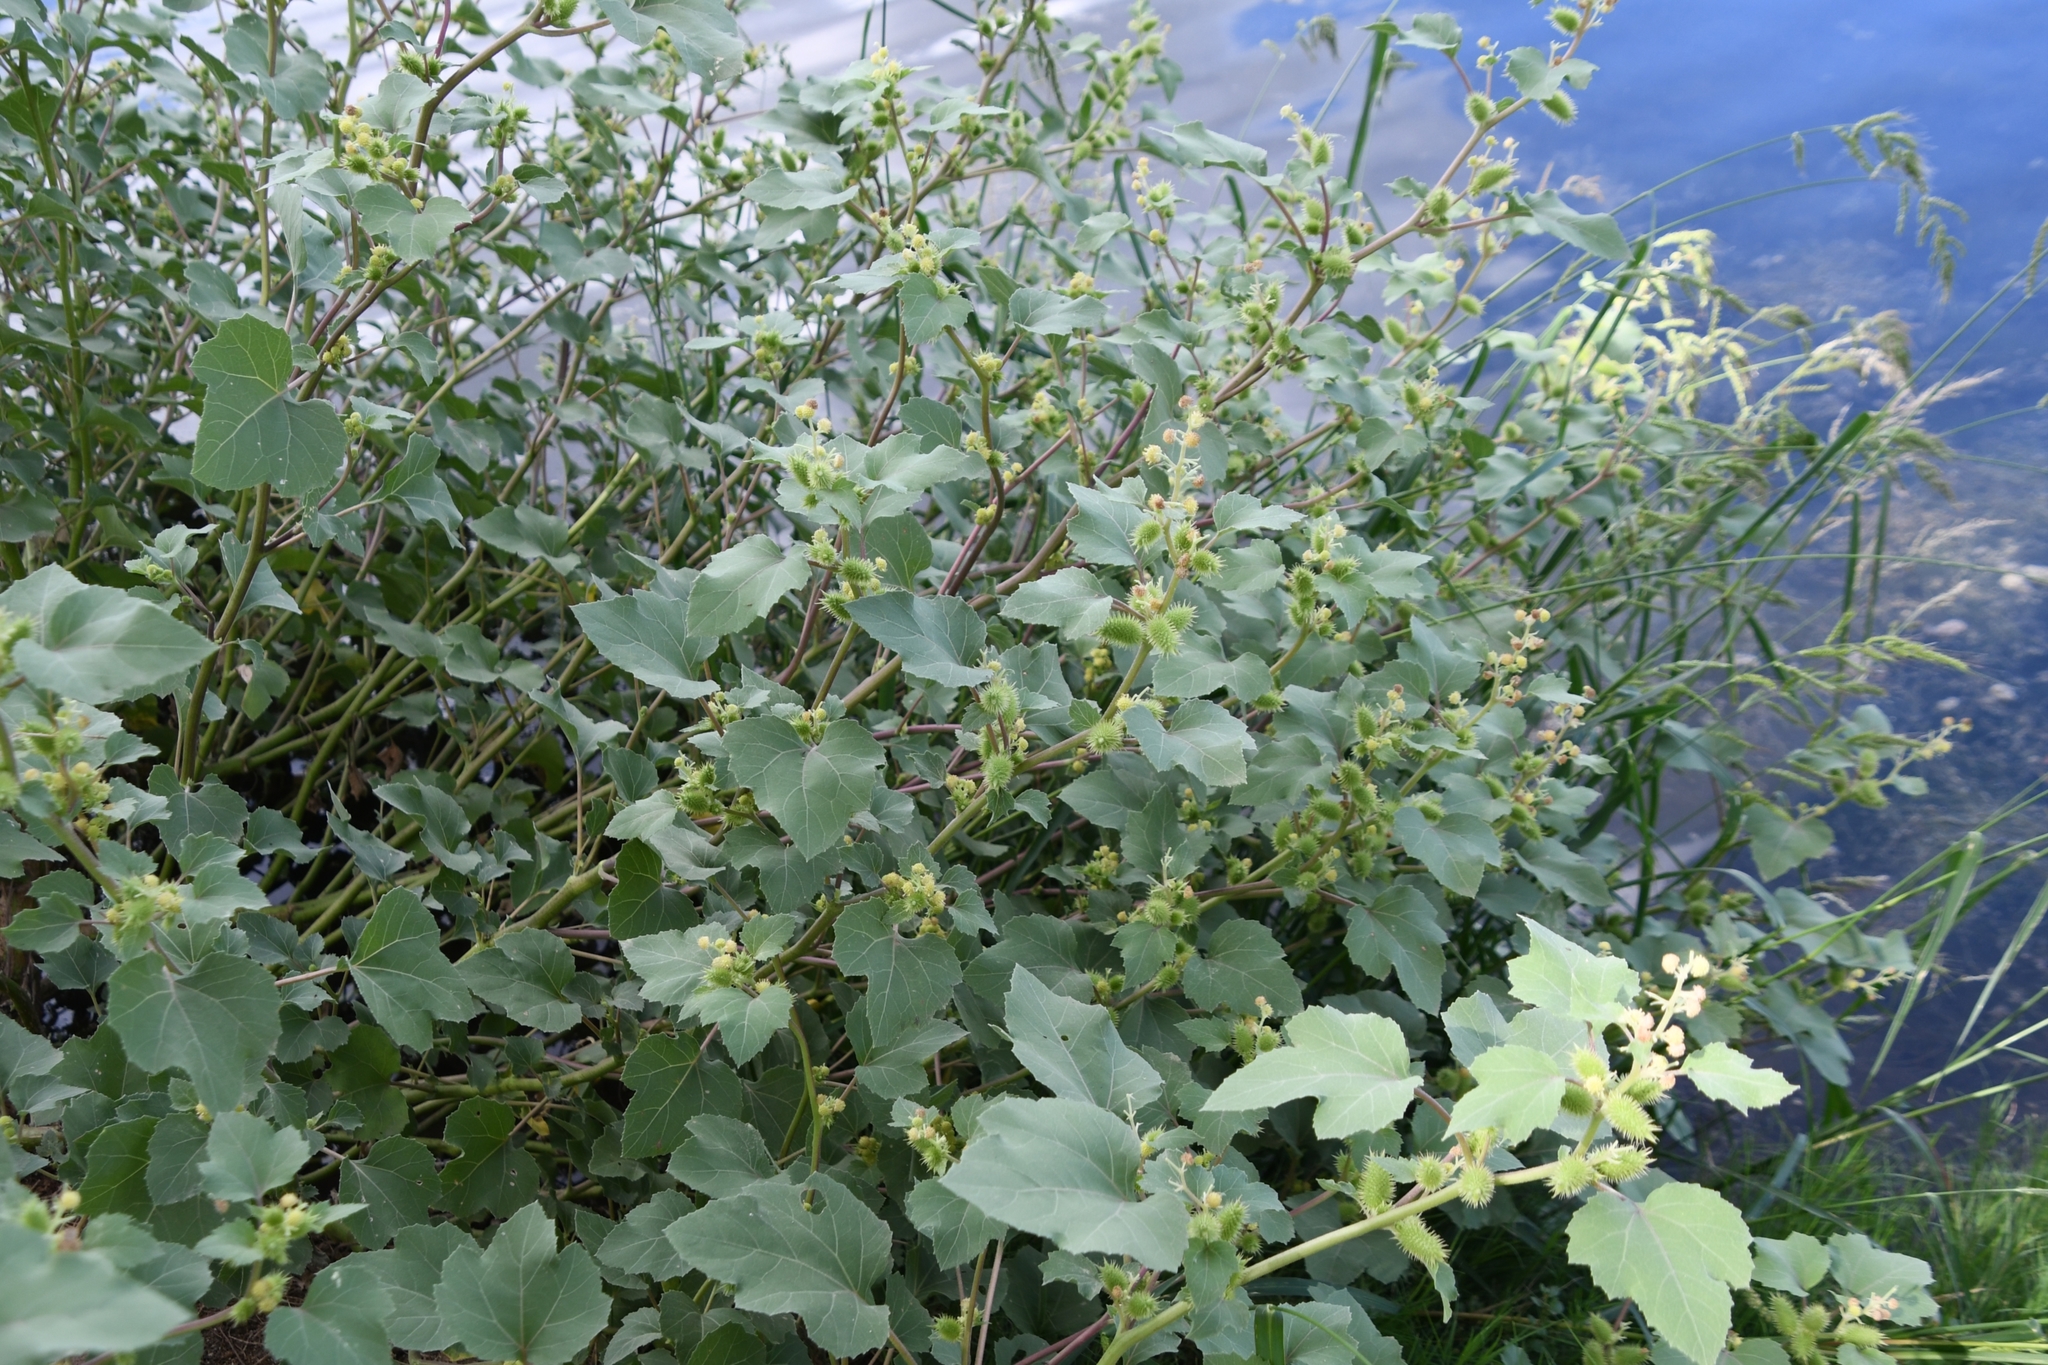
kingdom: Plantae
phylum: Tracheophyta
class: Magnoliopsida
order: Asterales
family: Asteraceae
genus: Xanthium
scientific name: Xanthium strumarium
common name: Rough cocklebur
